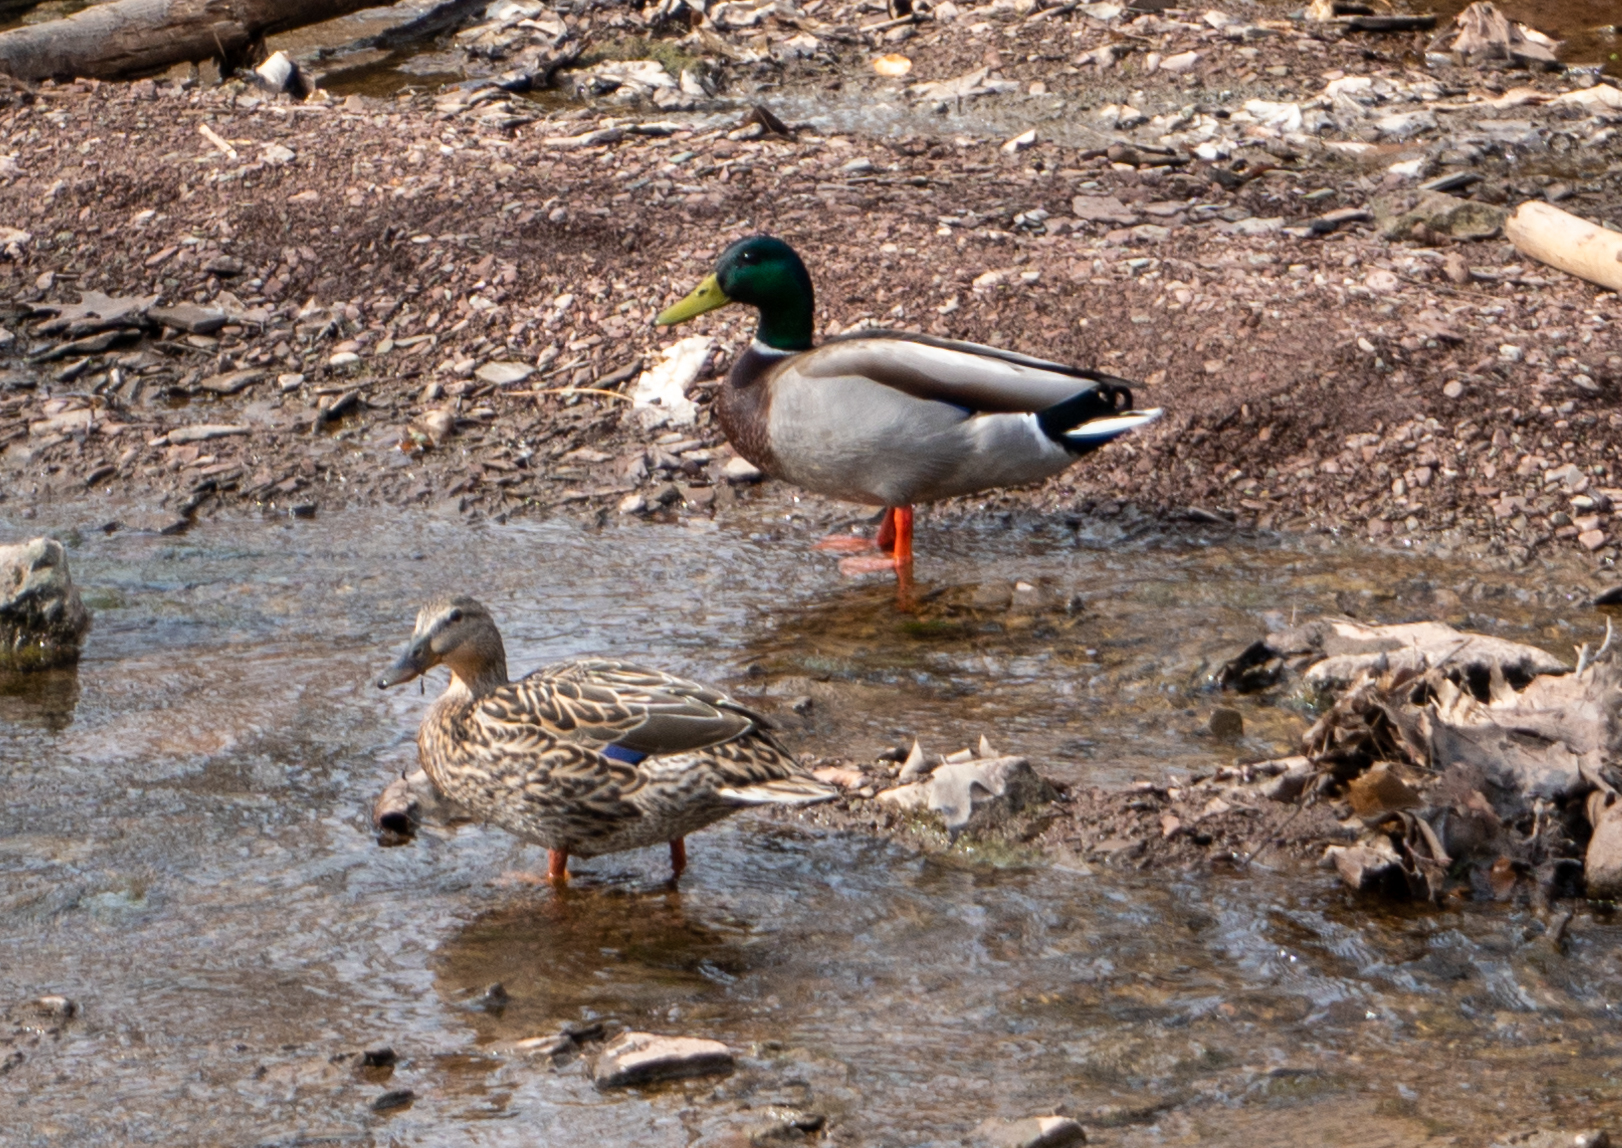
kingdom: Animalia
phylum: Chordata
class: Aves
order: Anseriformes
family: Anatidae
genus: Anas
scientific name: Anas platyrhynchos
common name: Mallard
